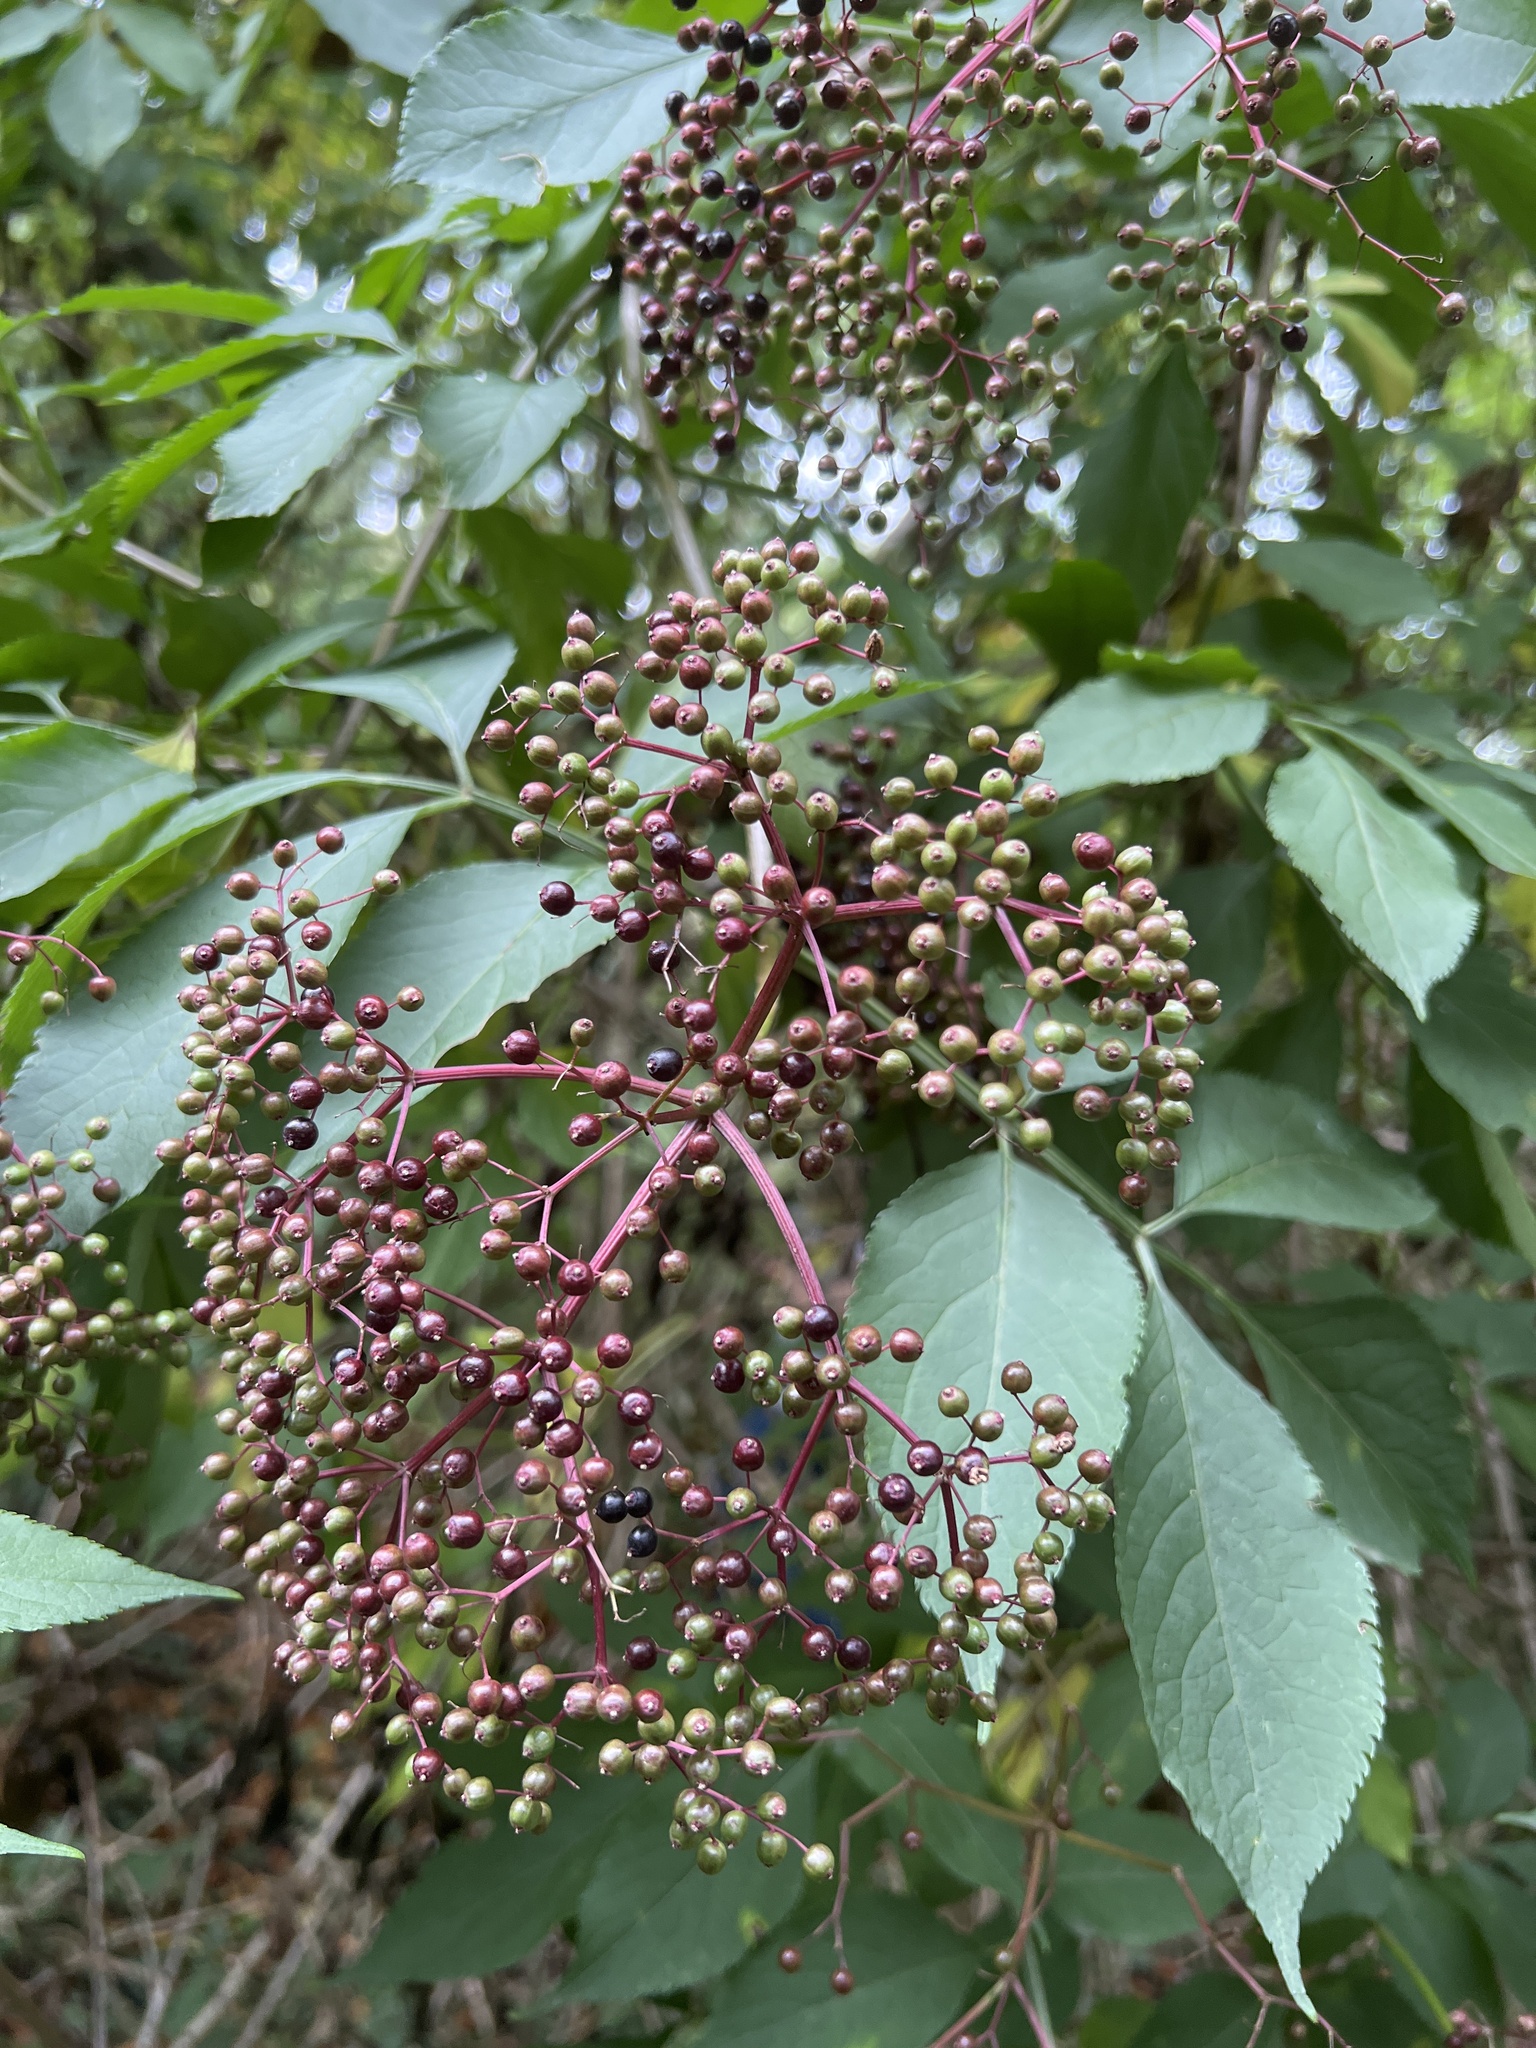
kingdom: Plantae
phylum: Tracheophyta
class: Magnoliopsida
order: Dipsacales
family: Viburnaceae
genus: Sambucus
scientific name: Sambucus nigra
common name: Elder
